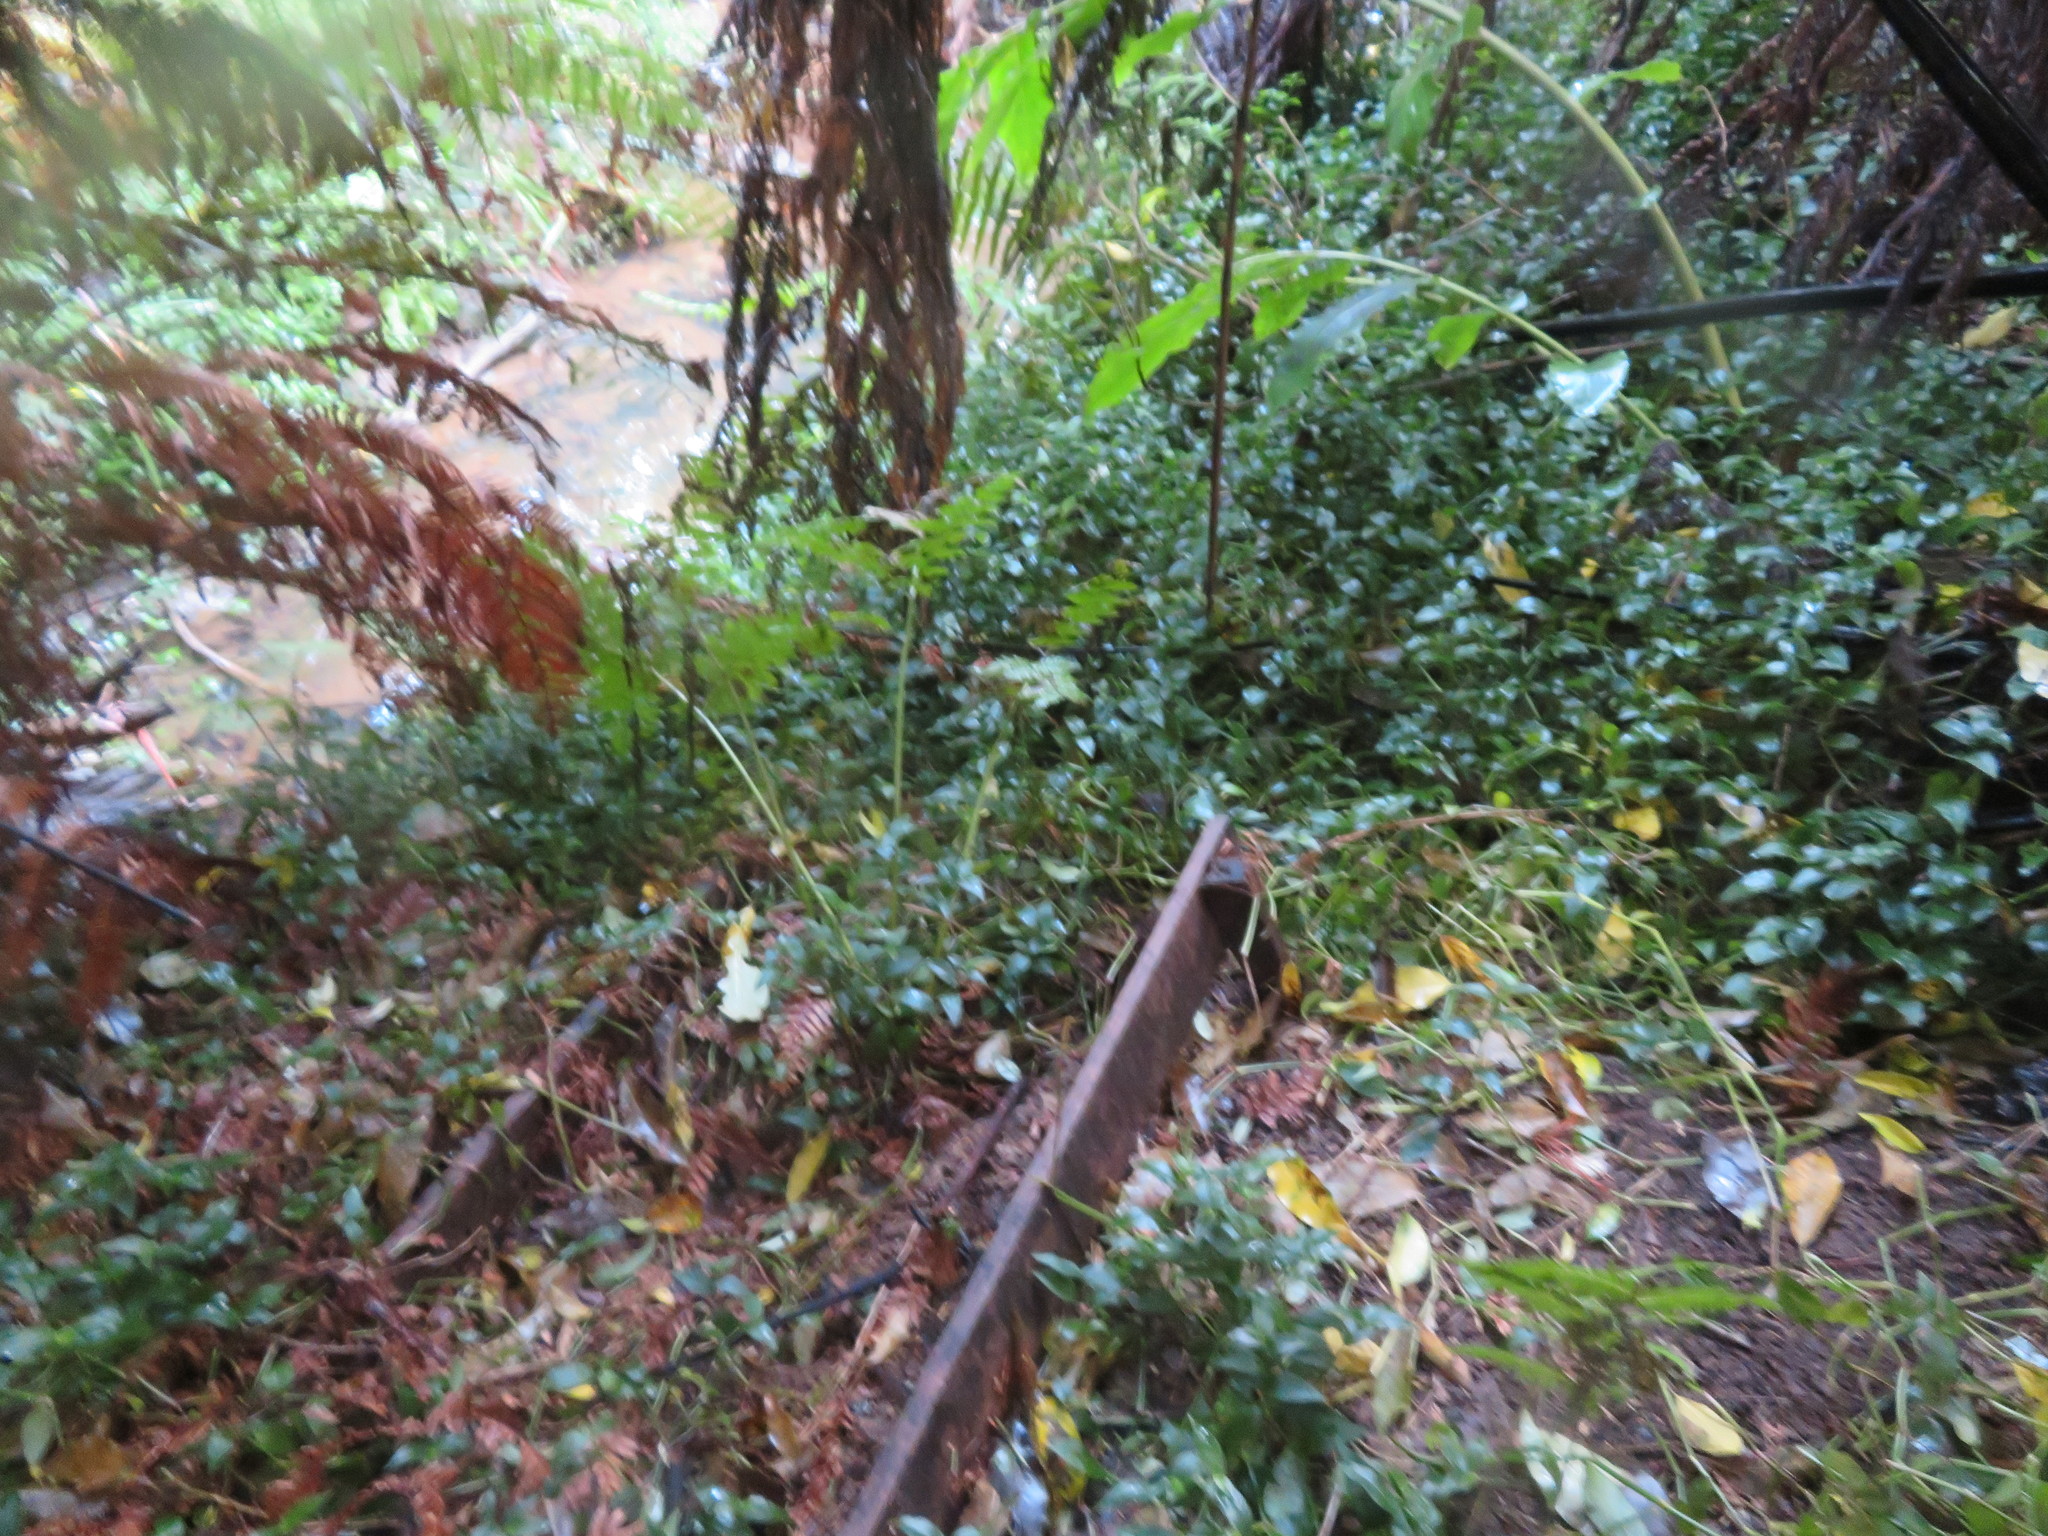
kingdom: Plantae
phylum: Tracheophyta
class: Liliopsida
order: Commelinales
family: Commelinaceae
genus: Tradescantia
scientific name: Tradescantia fluminensis
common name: Wandering-jew
